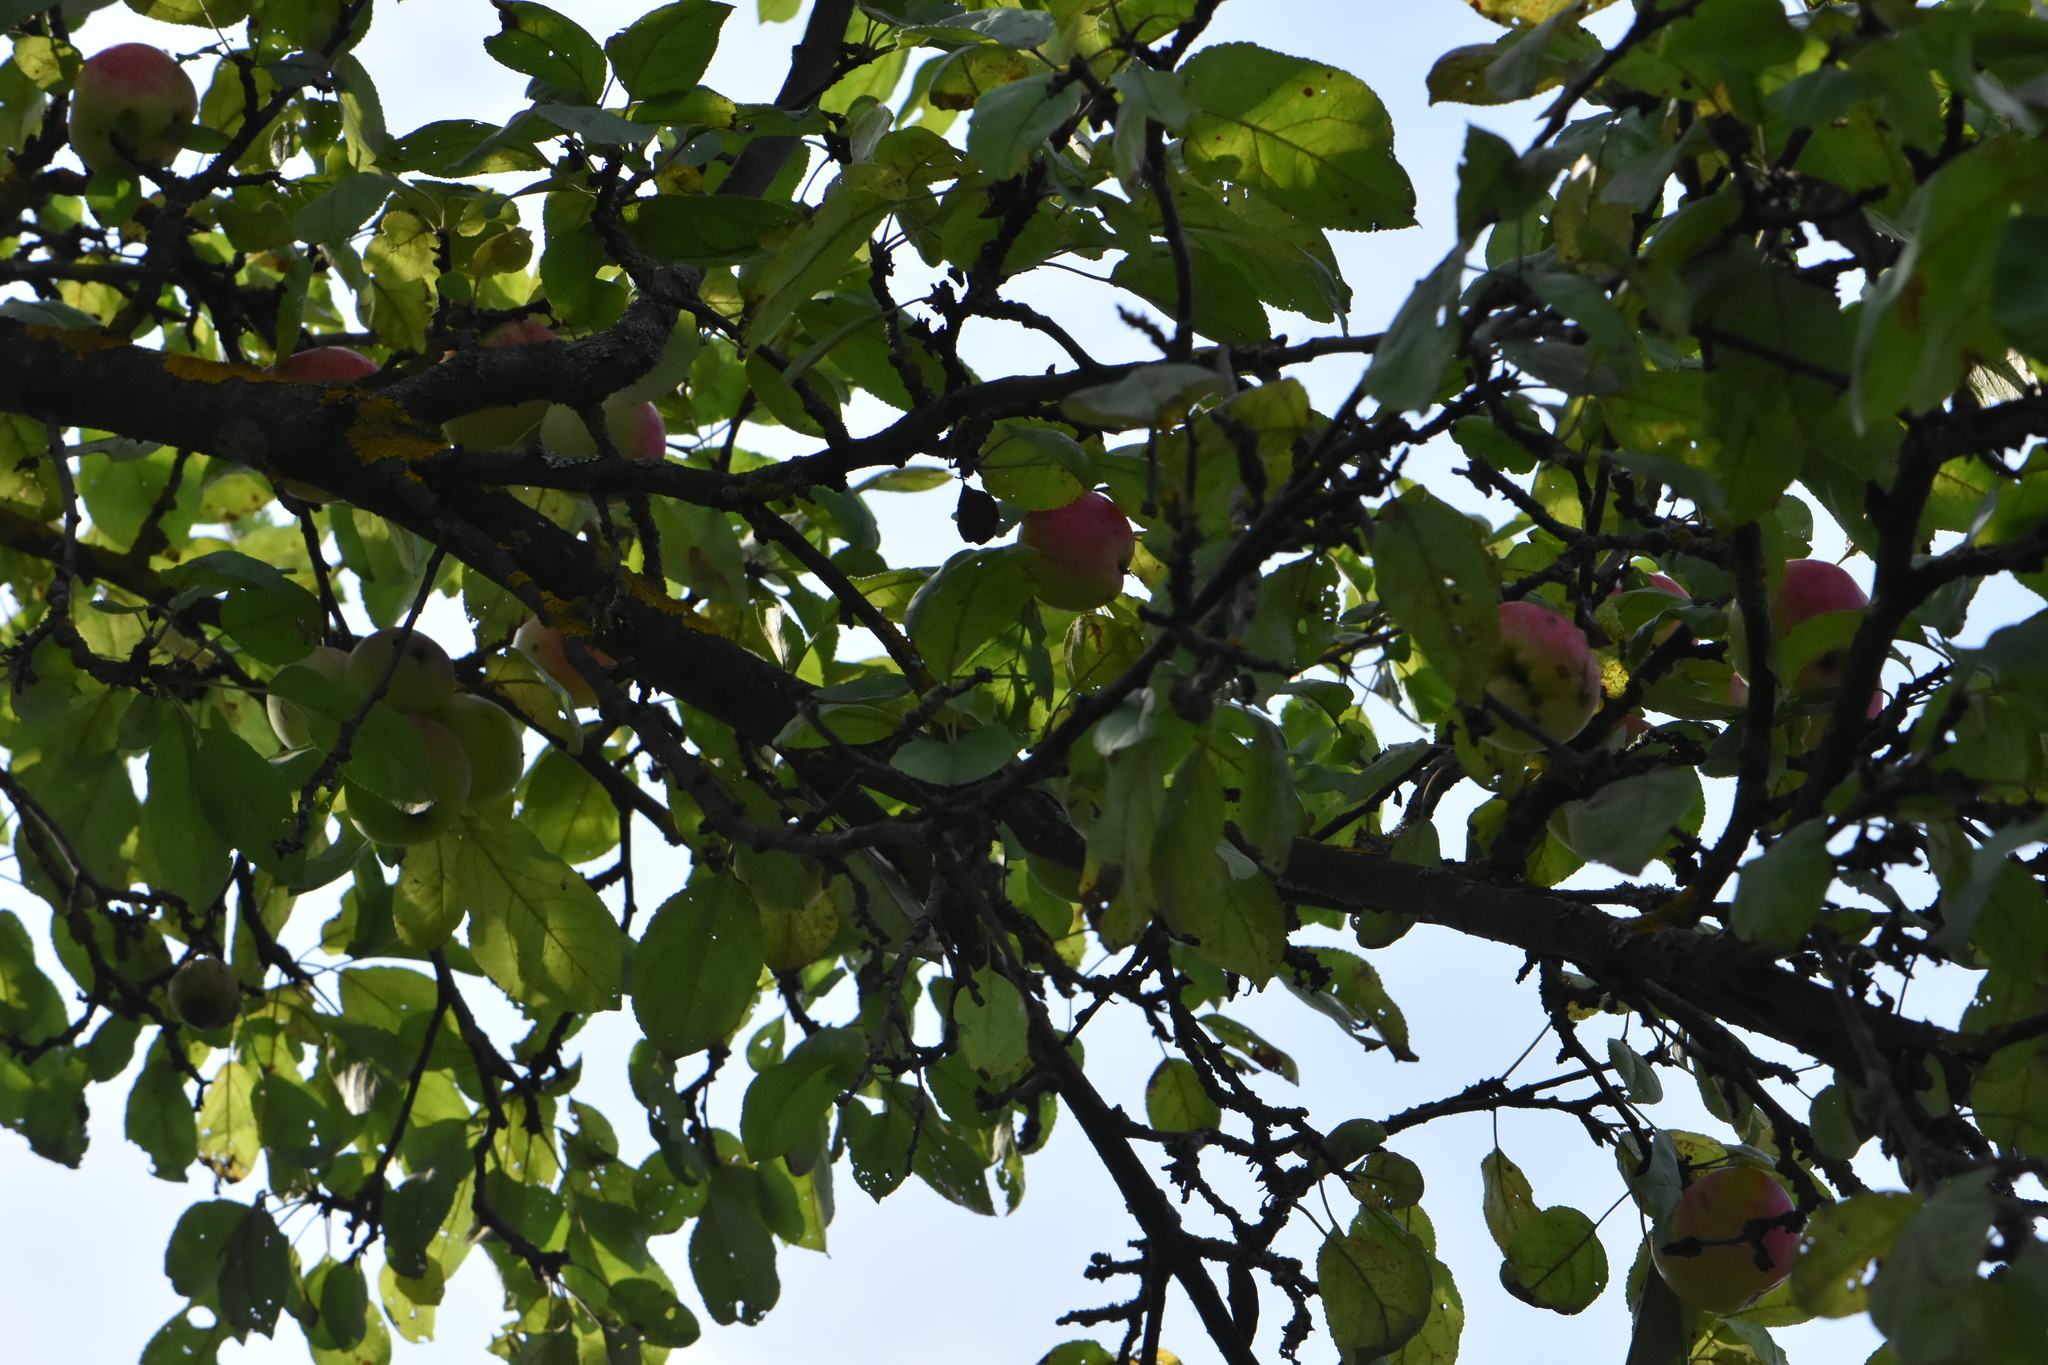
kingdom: Plantae
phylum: Tracheophyta
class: Magnoliopsida
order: Rosales
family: Rosaceae
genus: Malus
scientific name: Malus domestica
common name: Apple
